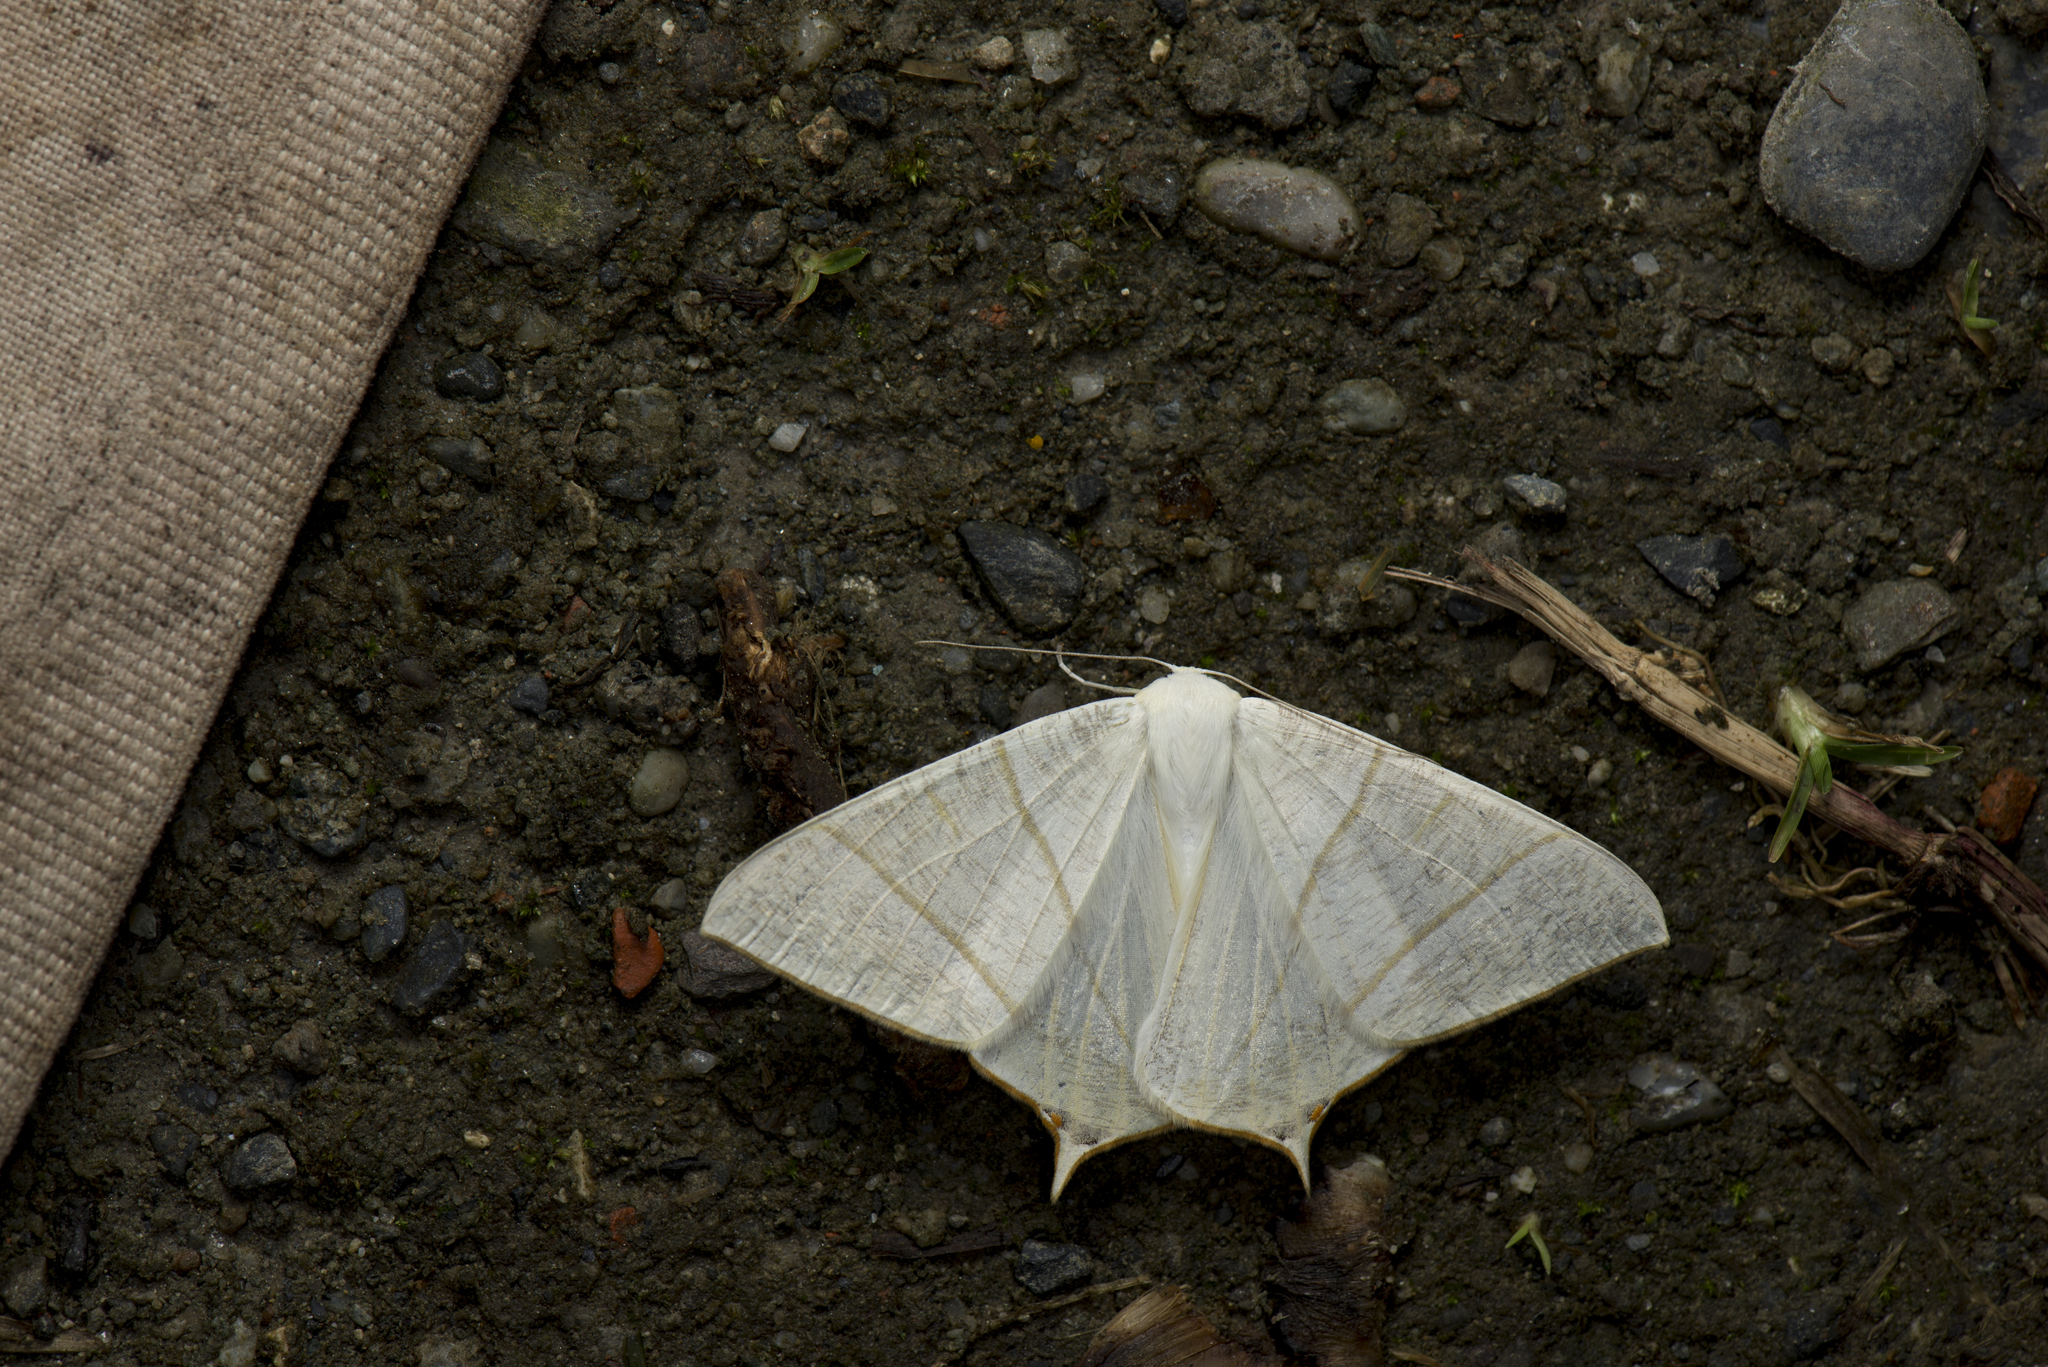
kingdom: Animalia
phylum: Arthropoda
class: Insecta
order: Lepidoptera
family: Geometridae
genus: Ourapteryx
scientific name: Ourapteryx pallidula
